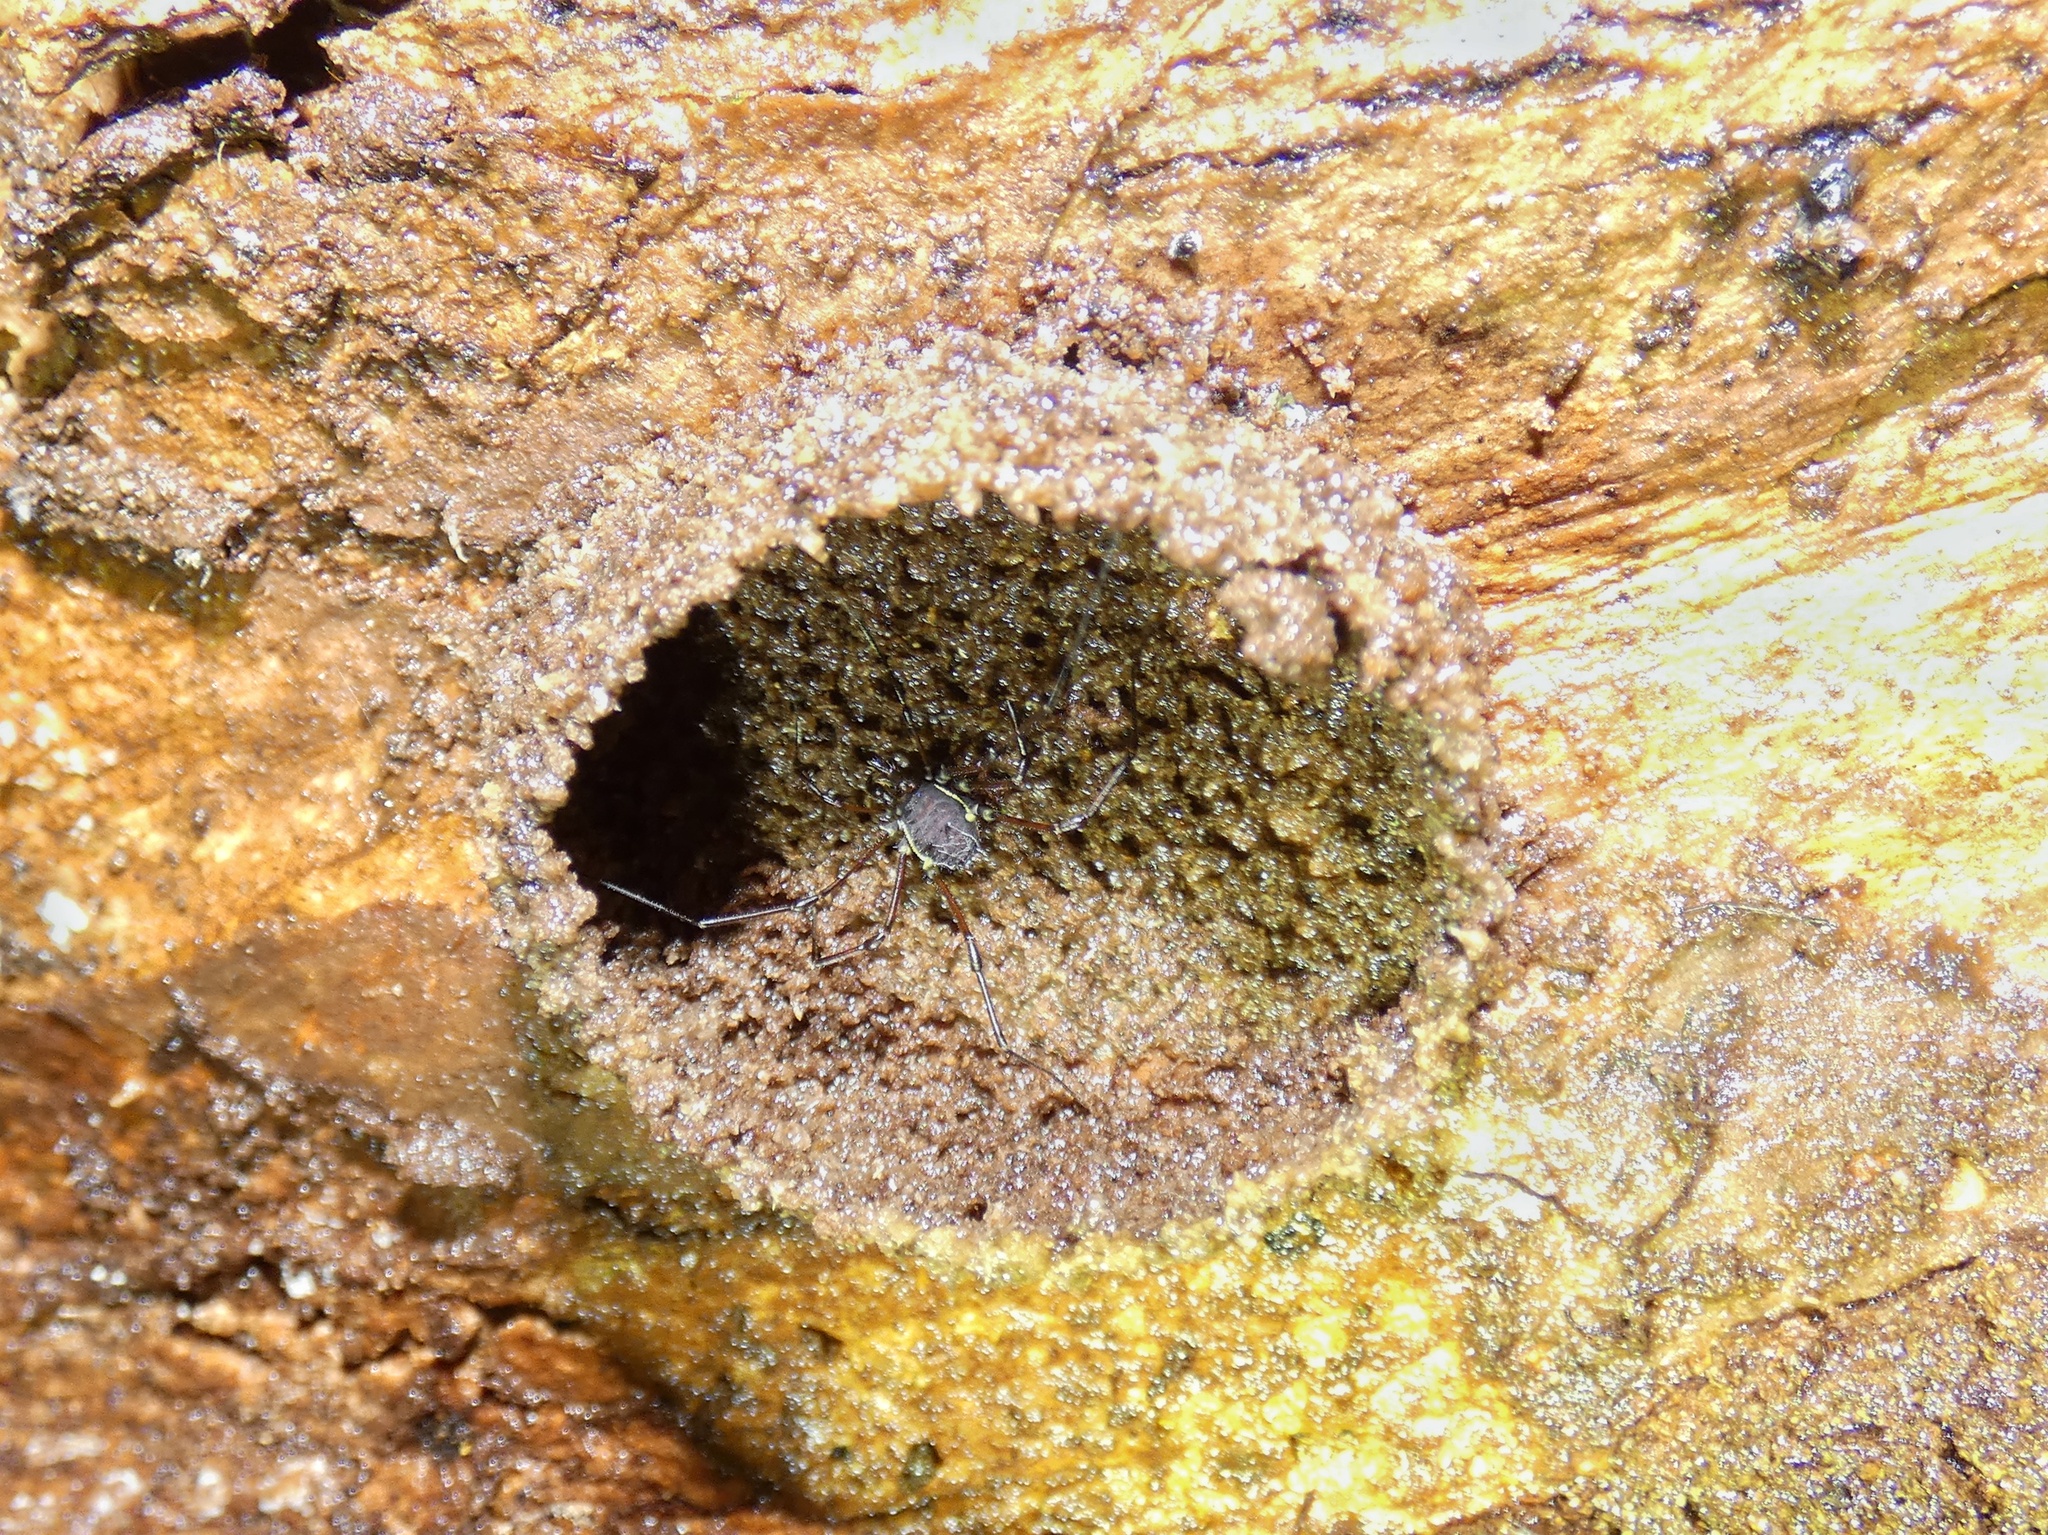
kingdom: Animalia
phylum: Arthropoda
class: Arachnida
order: Opiliones
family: Nomoclastidae
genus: Quindina
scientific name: Quindina albomarginis
